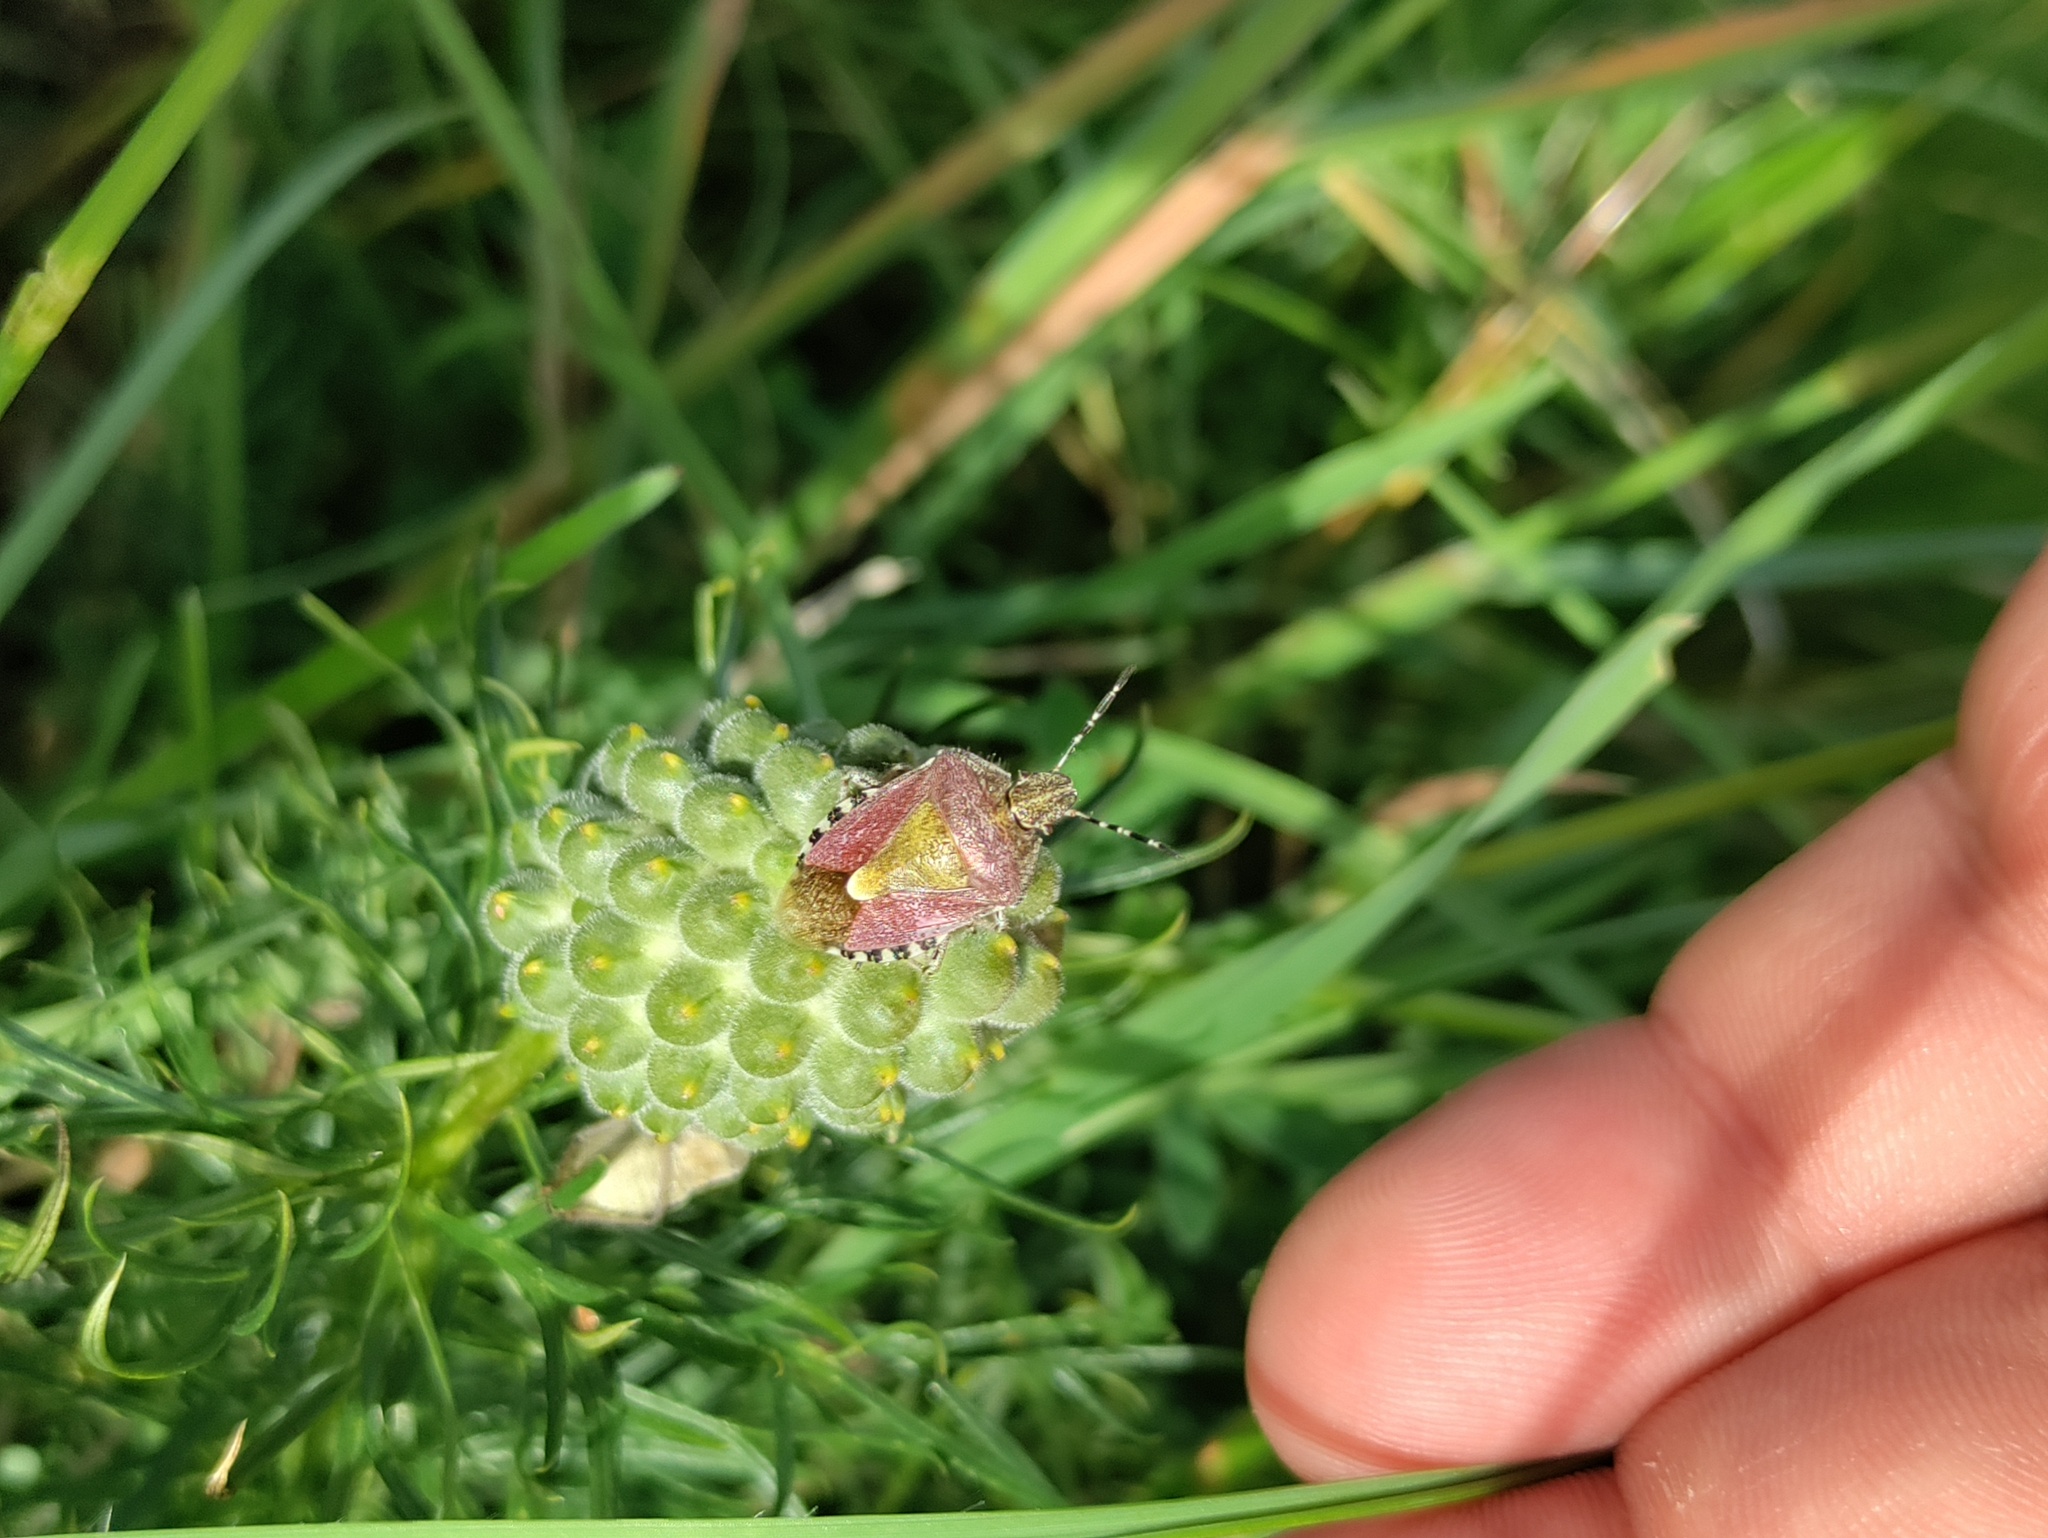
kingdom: Animalia
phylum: Arthropoda
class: Insecta
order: Hemiptera
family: Pentatomidae
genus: Dolycoris
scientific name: Dolycoris baccarum
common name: Sloe bug
